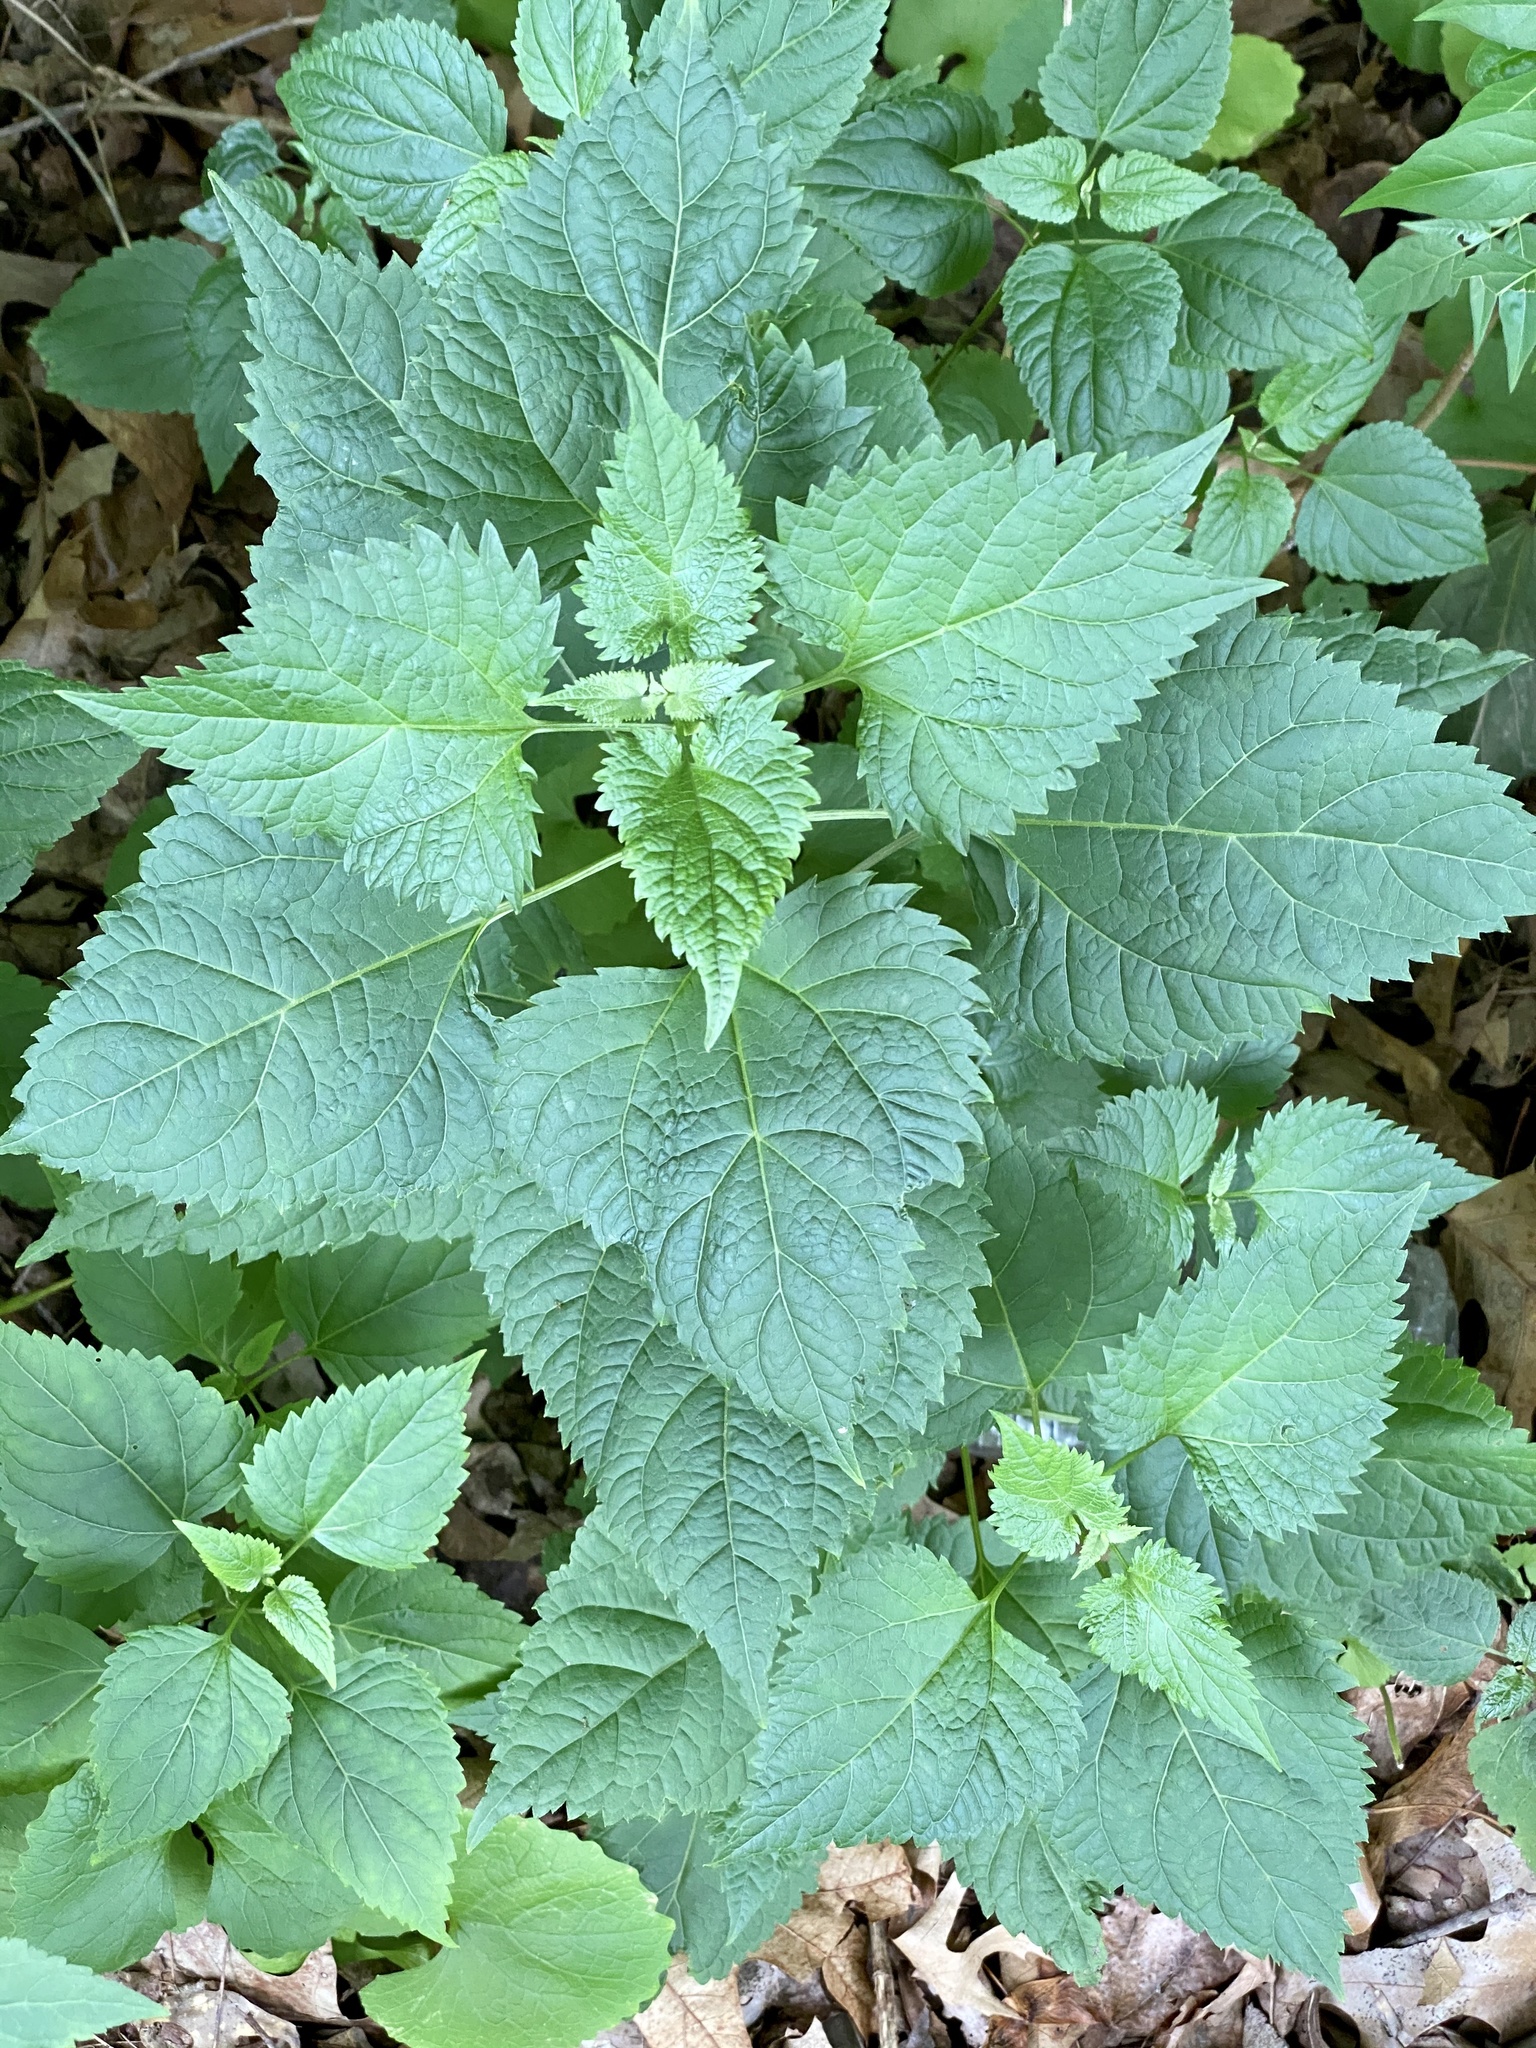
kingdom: Plantae
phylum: Tracheophyta
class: Magnoliopsida
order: Asterales
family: Asteraceae
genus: Ageratina
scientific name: Ageratina altissima
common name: White snakeroot
